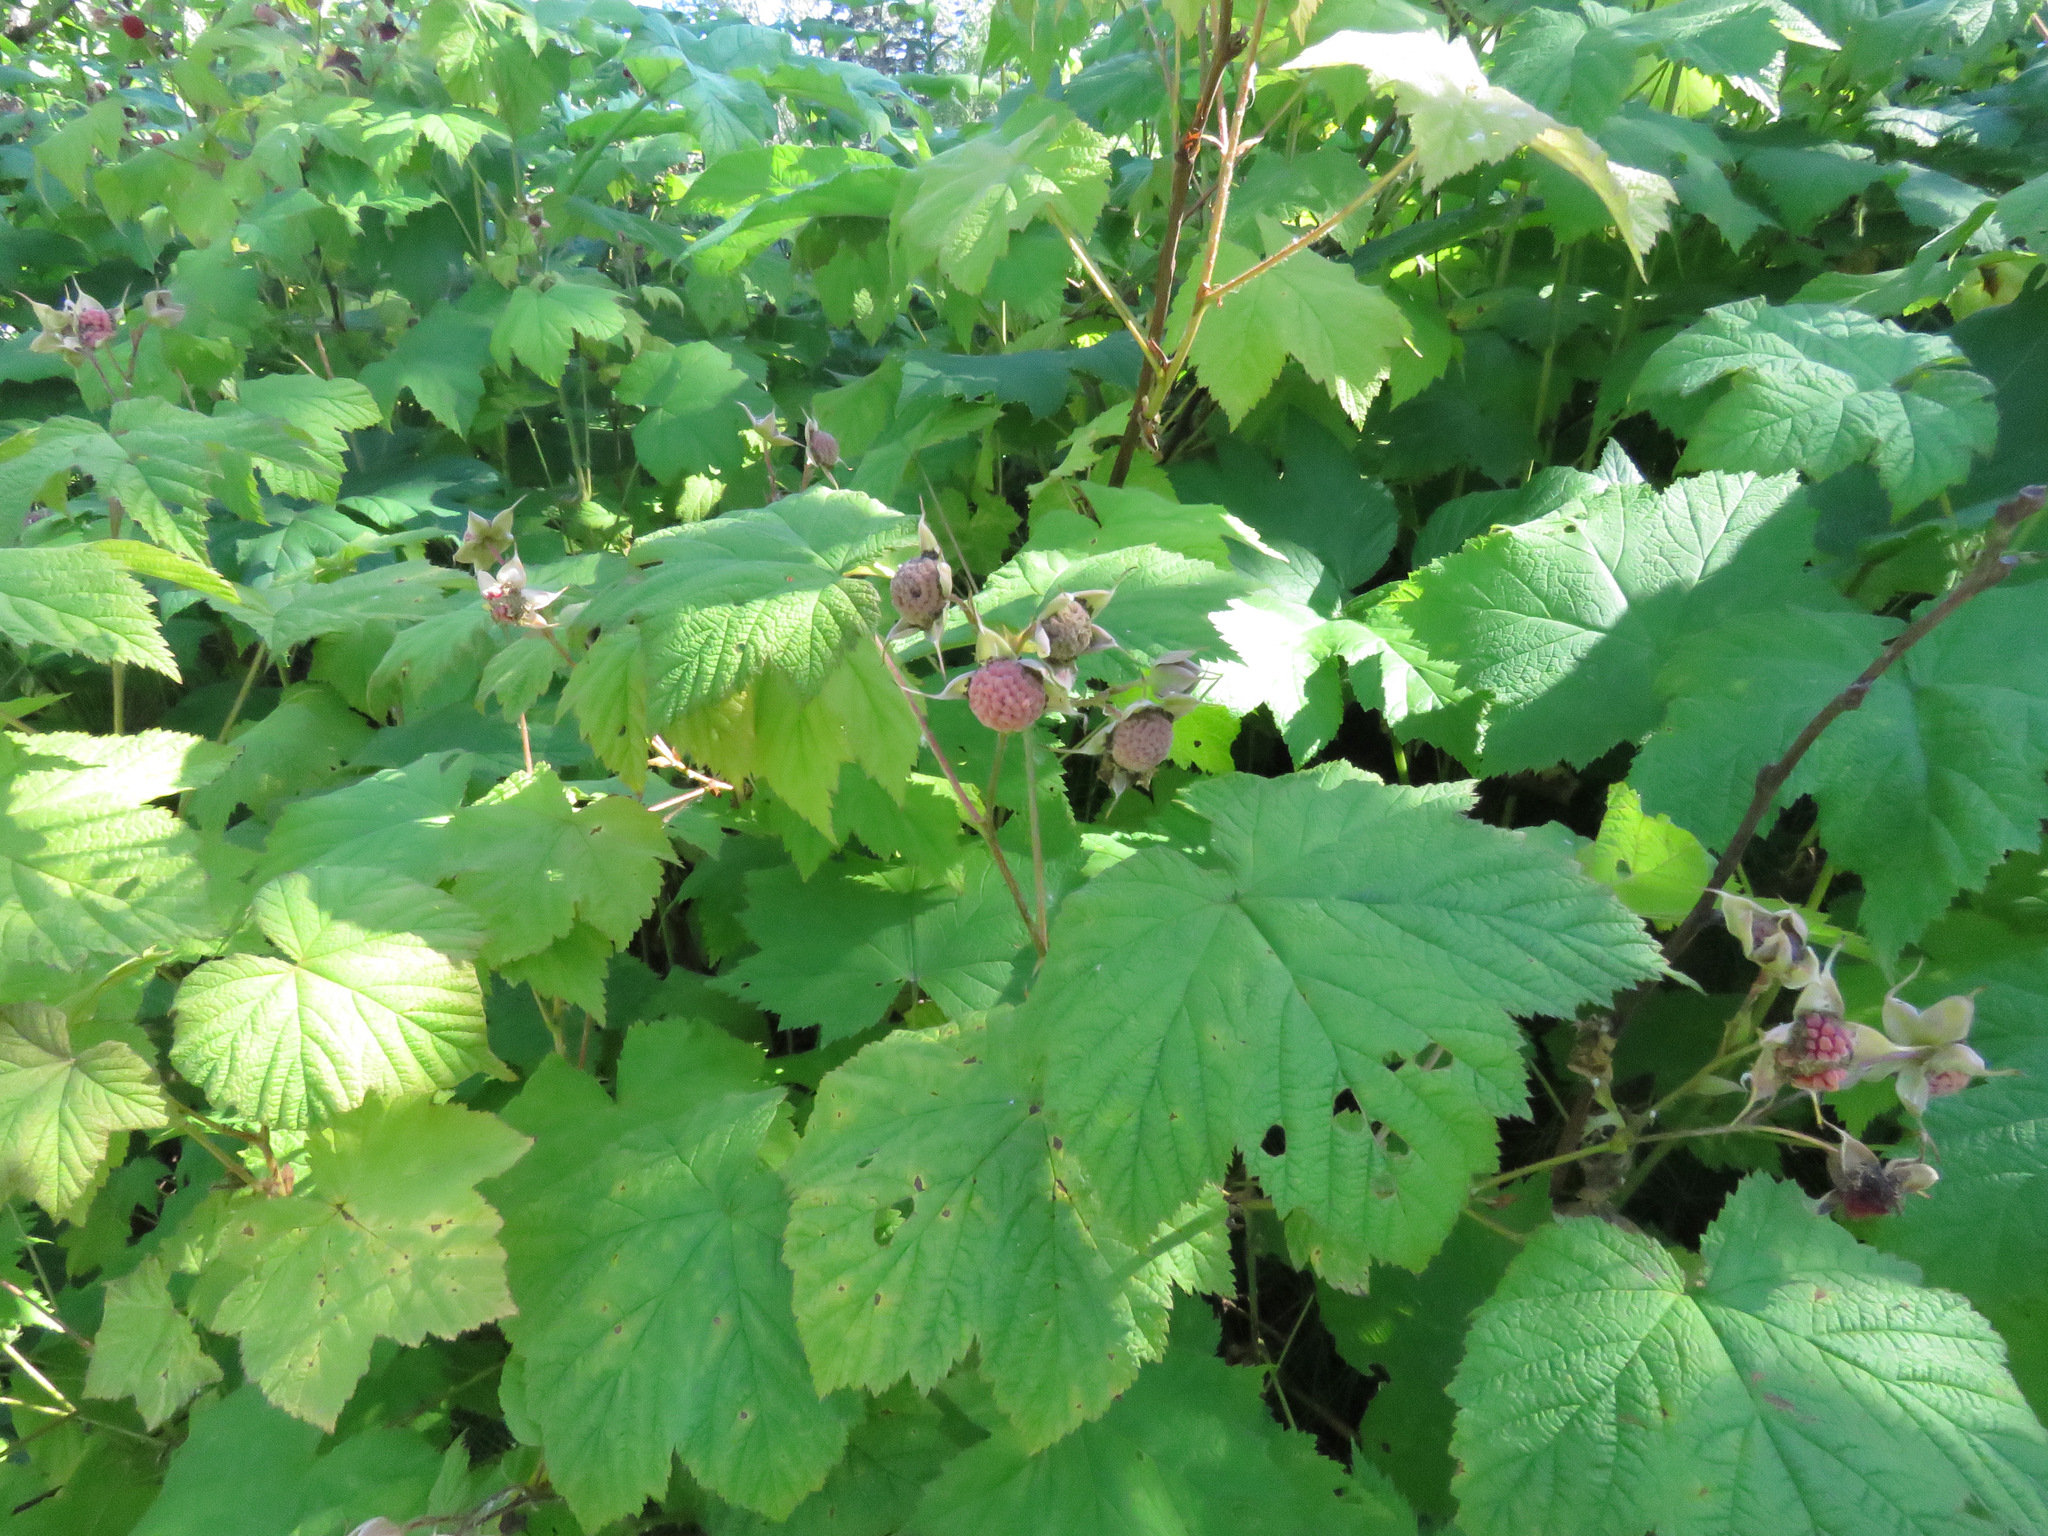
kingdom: Plantae
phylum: Tracheophyta
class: Magnoliopsida
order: Rosales
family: Rosaceae
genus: Rubus
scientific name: Rubus parviflorus
